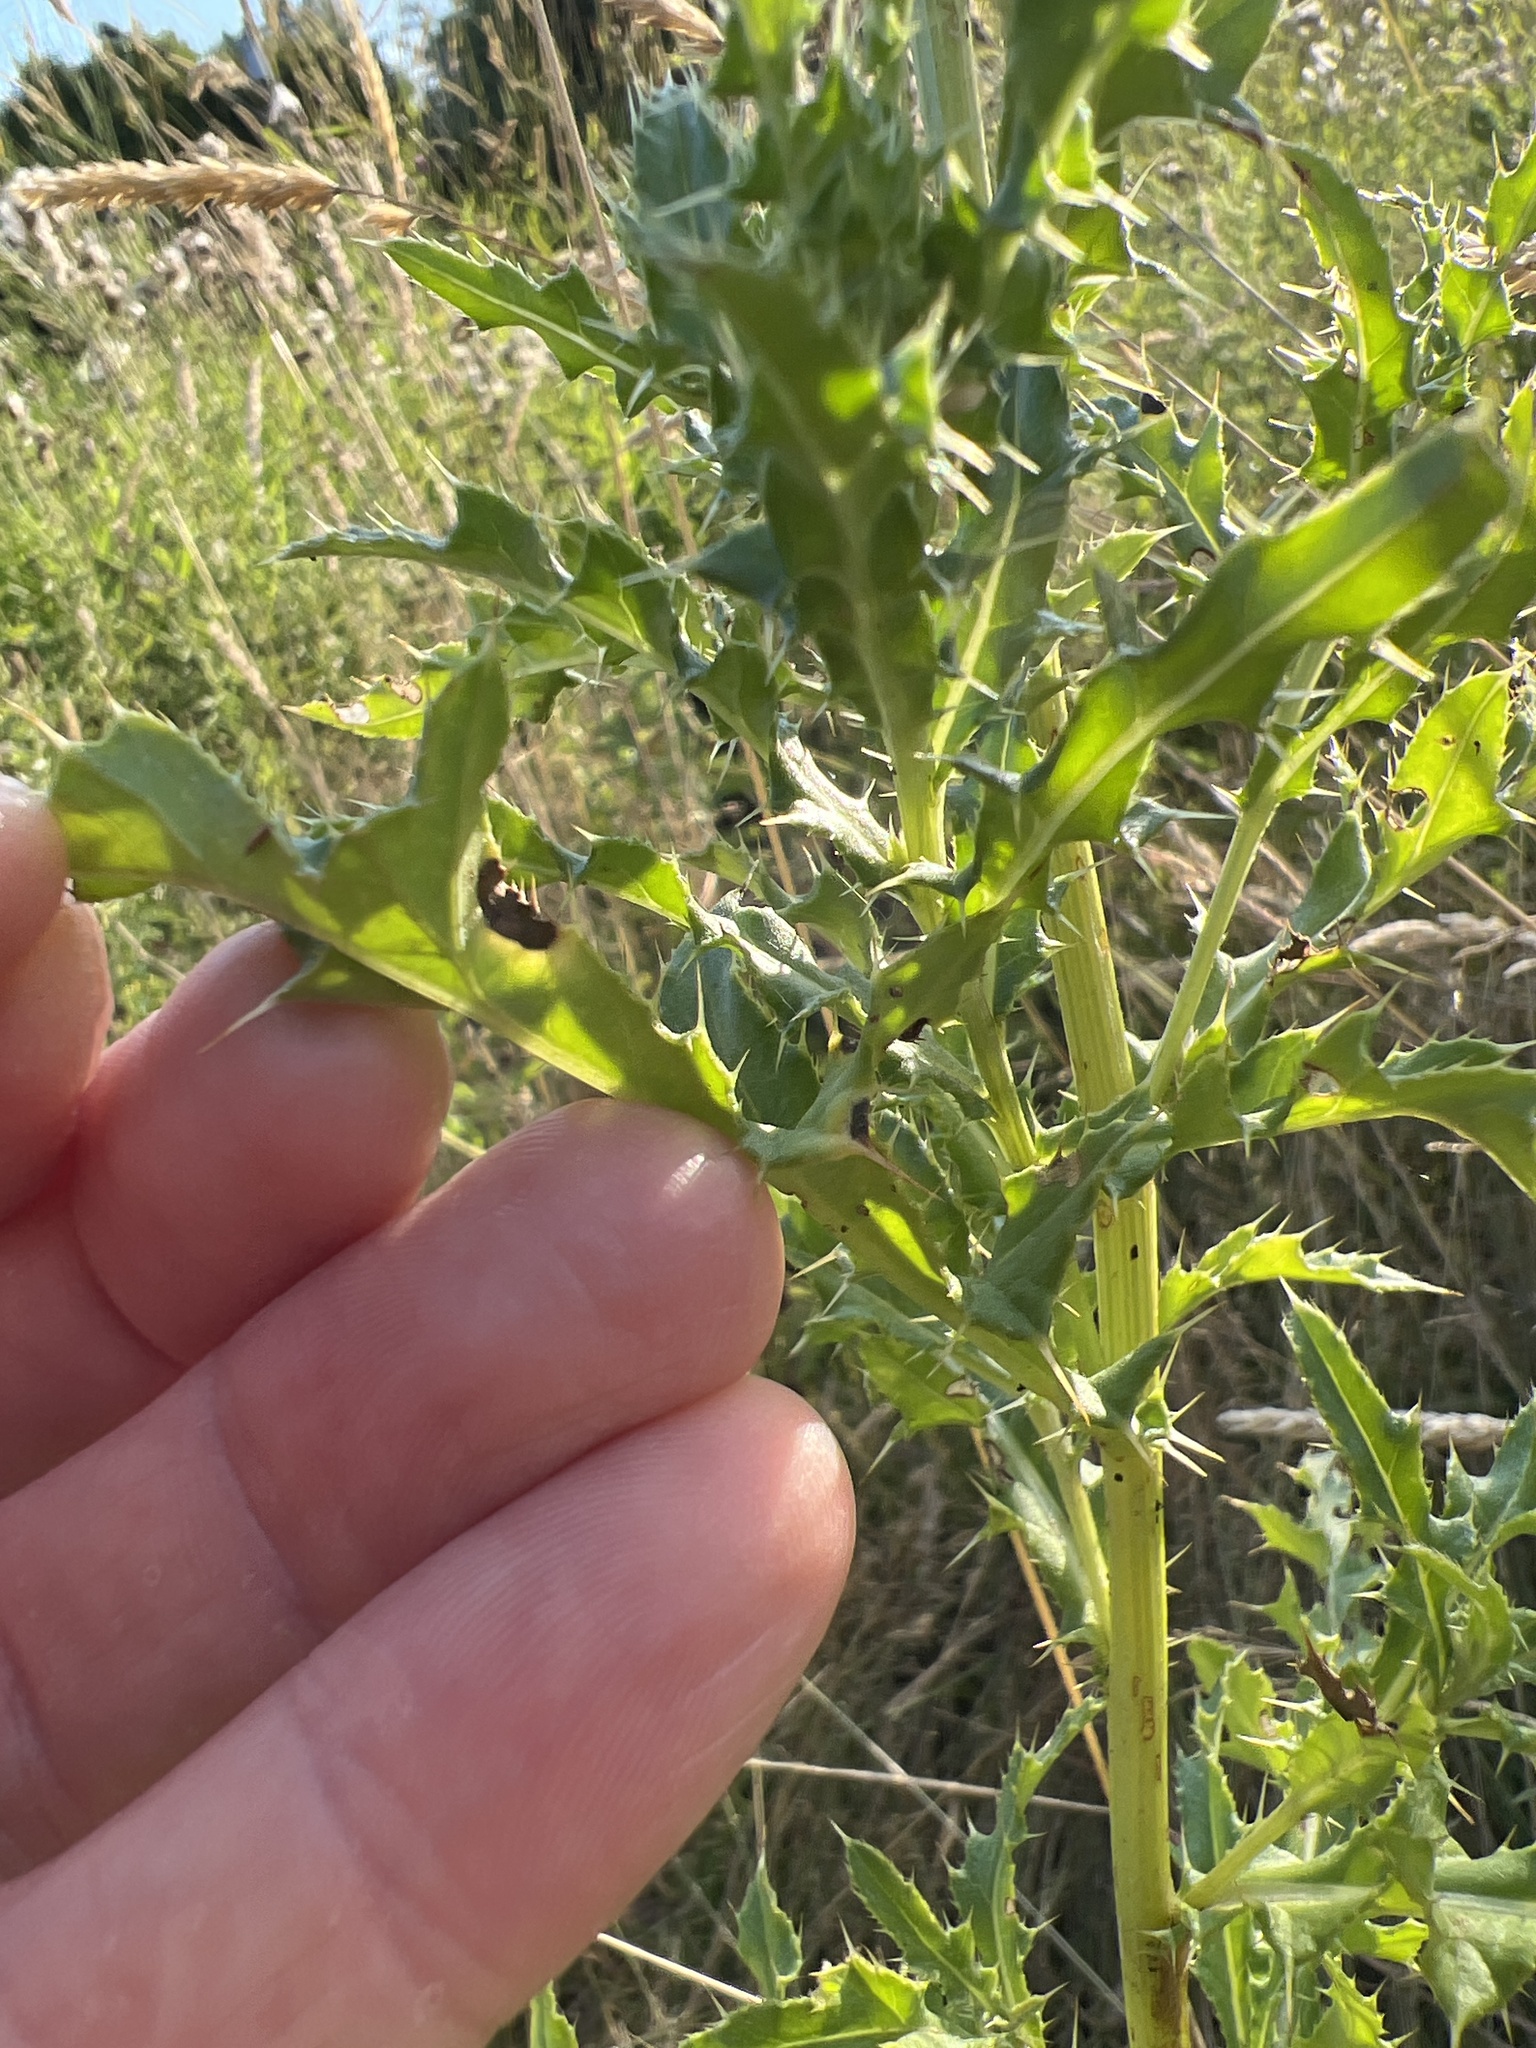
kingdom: Plantae
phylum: Tracheophyta
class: Magnoliopsida
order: Asterales
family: Asteraceae
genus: Cirsium
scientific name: Cirsium arvense
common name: Creeping thistle
